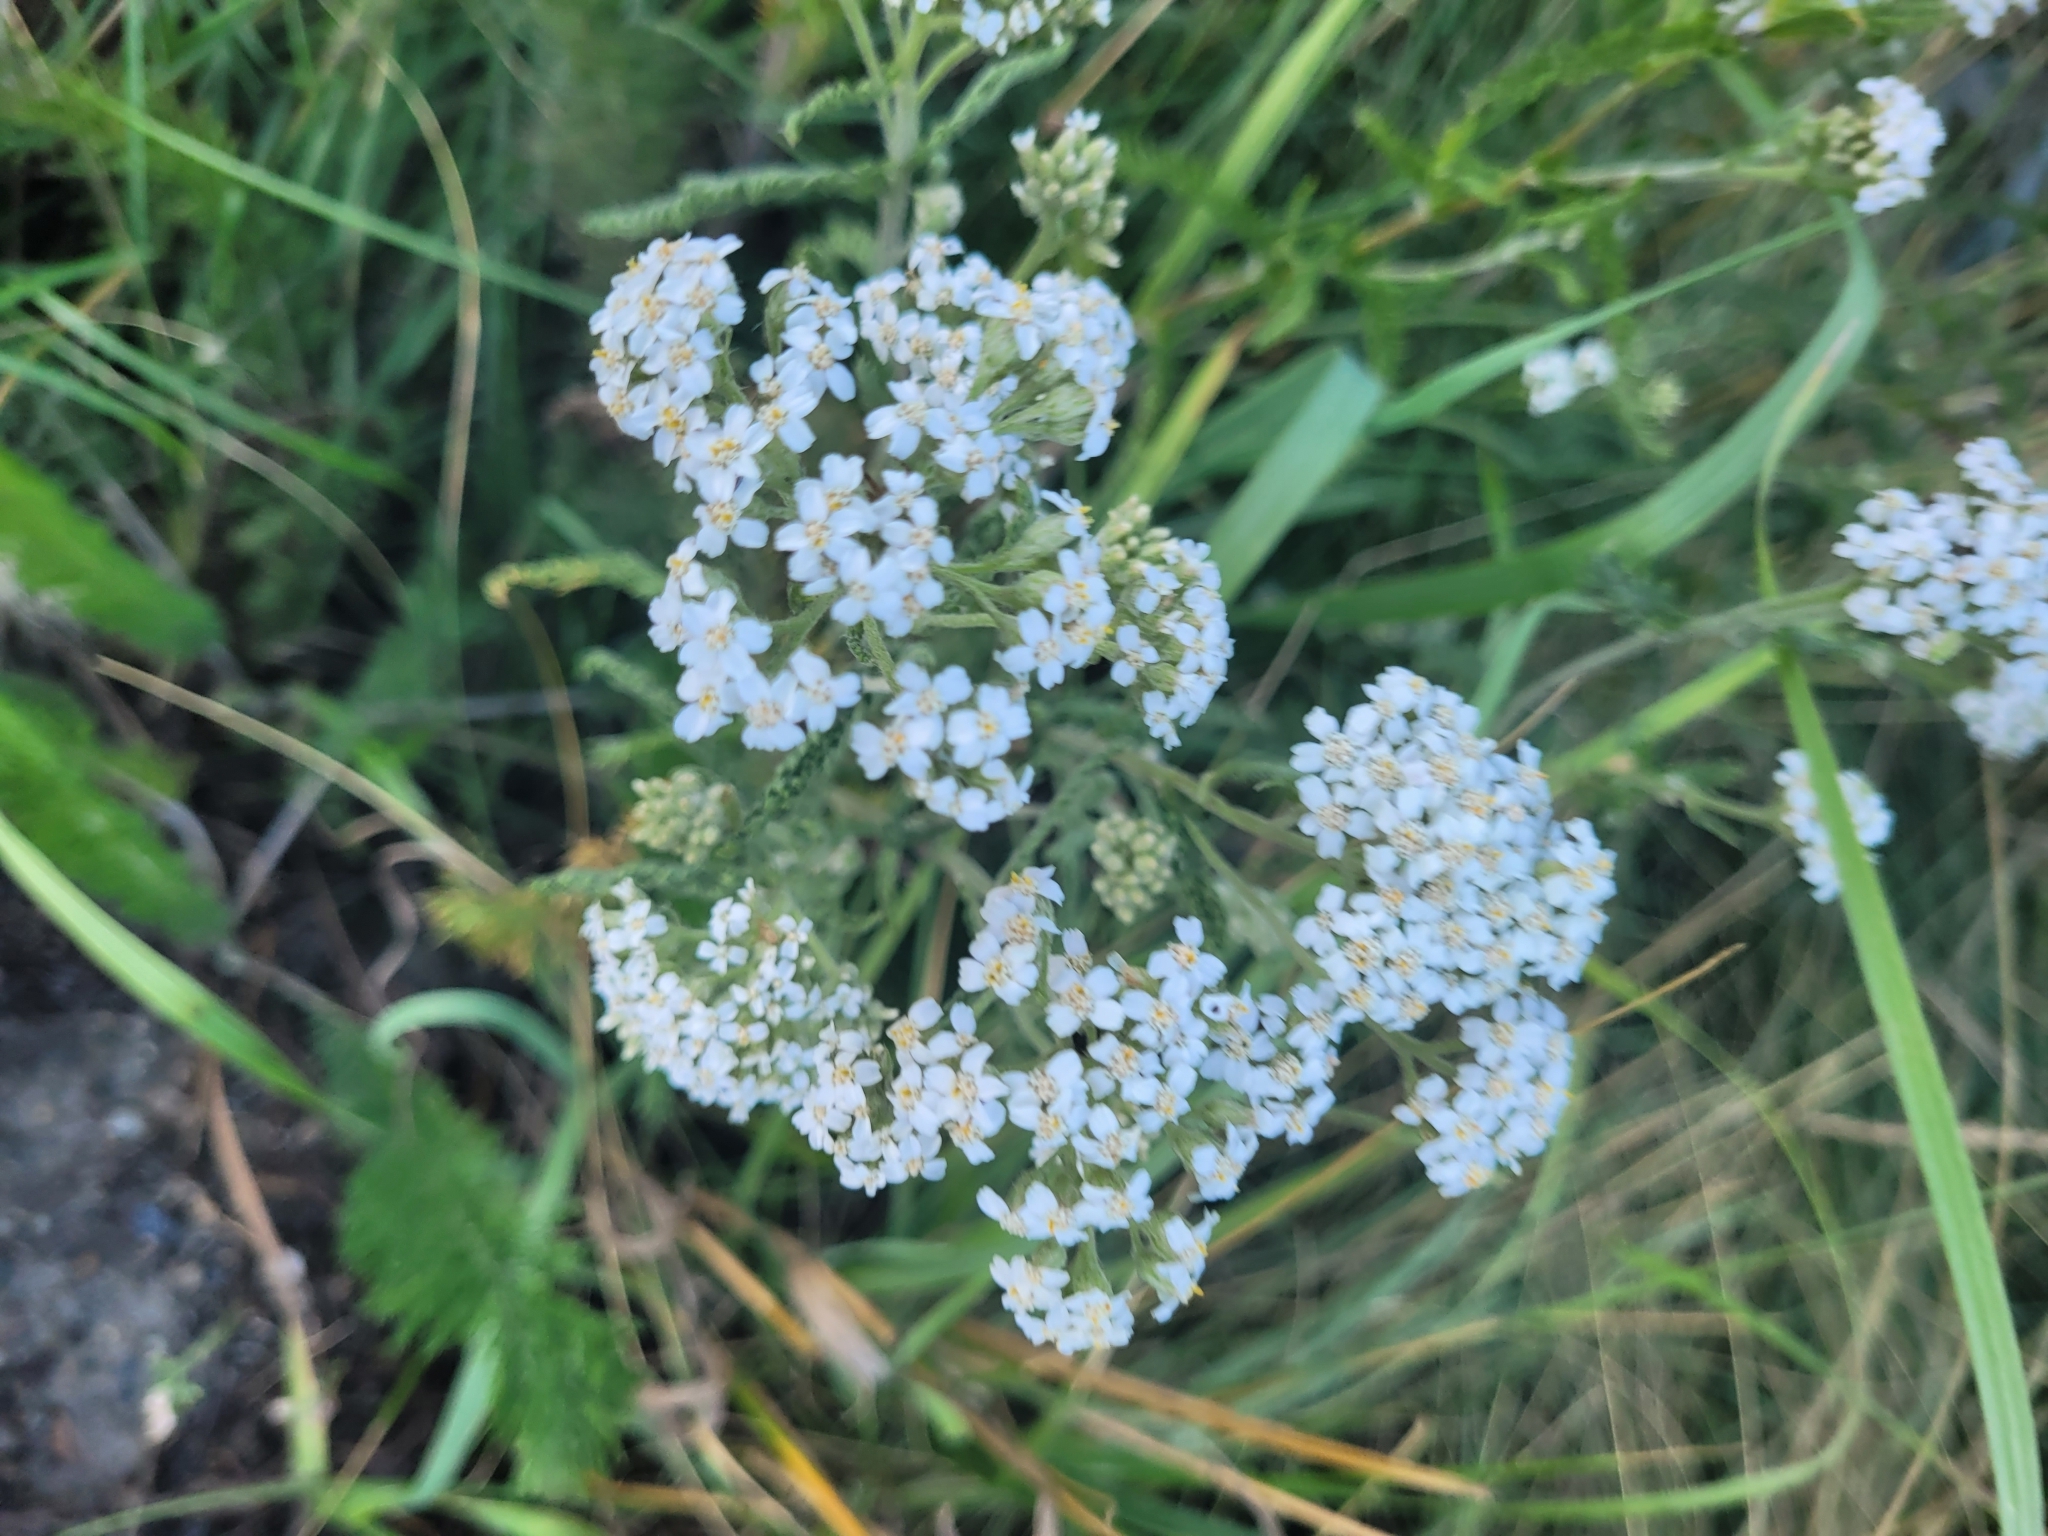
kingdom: Plantae
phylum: Tracheophyta
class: Magnoliopsida
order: Asterales
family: Asteraceae
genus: Achillea
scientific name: Achillea millefolium
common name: Yarrow
